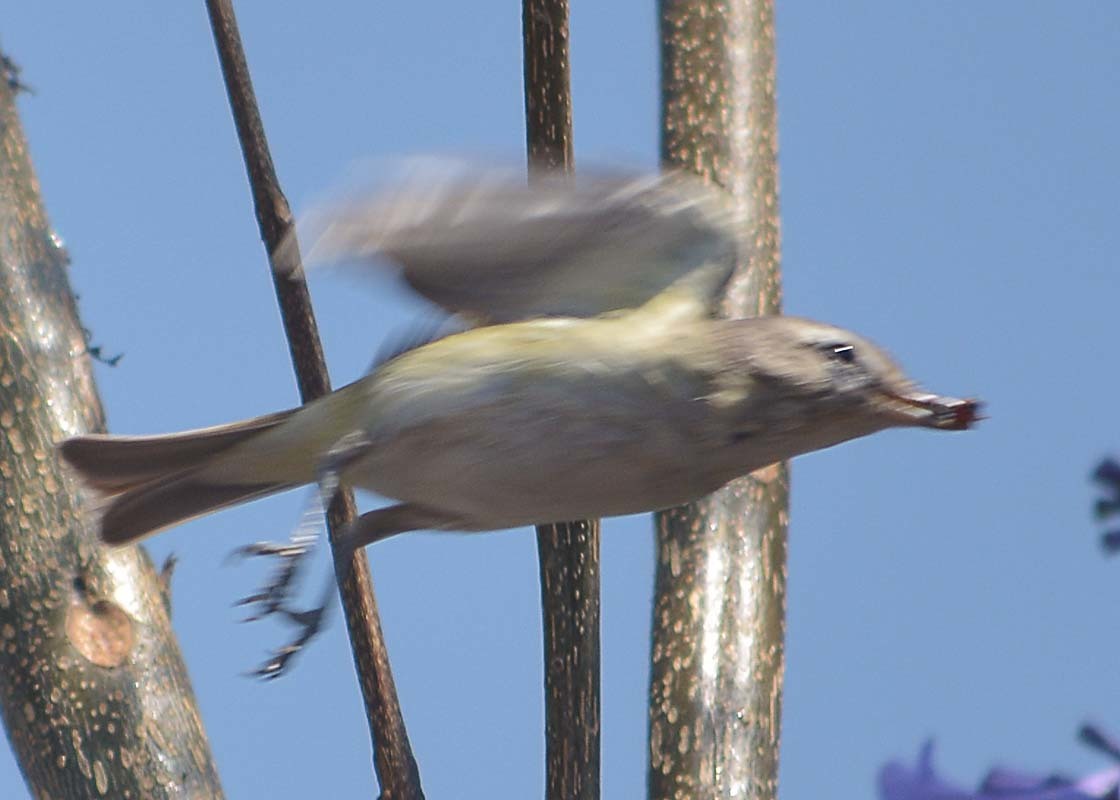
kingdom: Animalia
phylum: Chordata
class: Aves
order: Passeriformes
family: Vireonidae
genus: Vireo
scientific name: Vireo gilvus
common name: Warbling vireo
